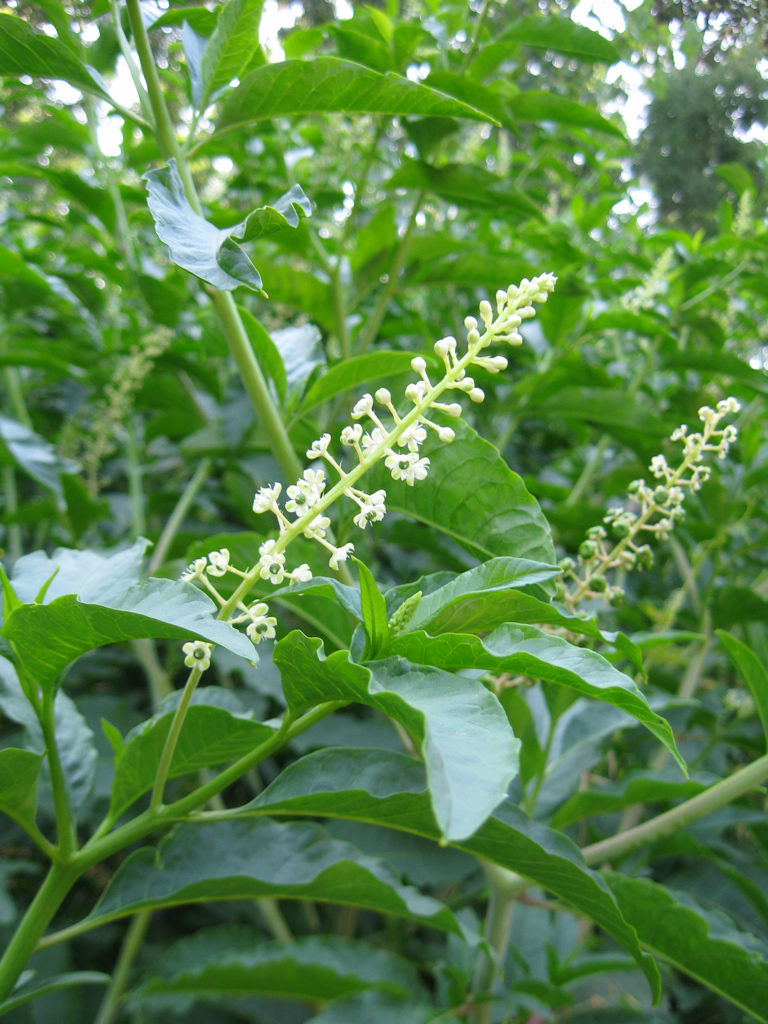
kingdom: Plantae
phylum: Tracheophyta
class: Magnoliopsida
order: Caryophyllales
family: Phytolaccaceae
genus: Phytolacca
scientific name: Phytolacca americana
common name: American pokeweed
